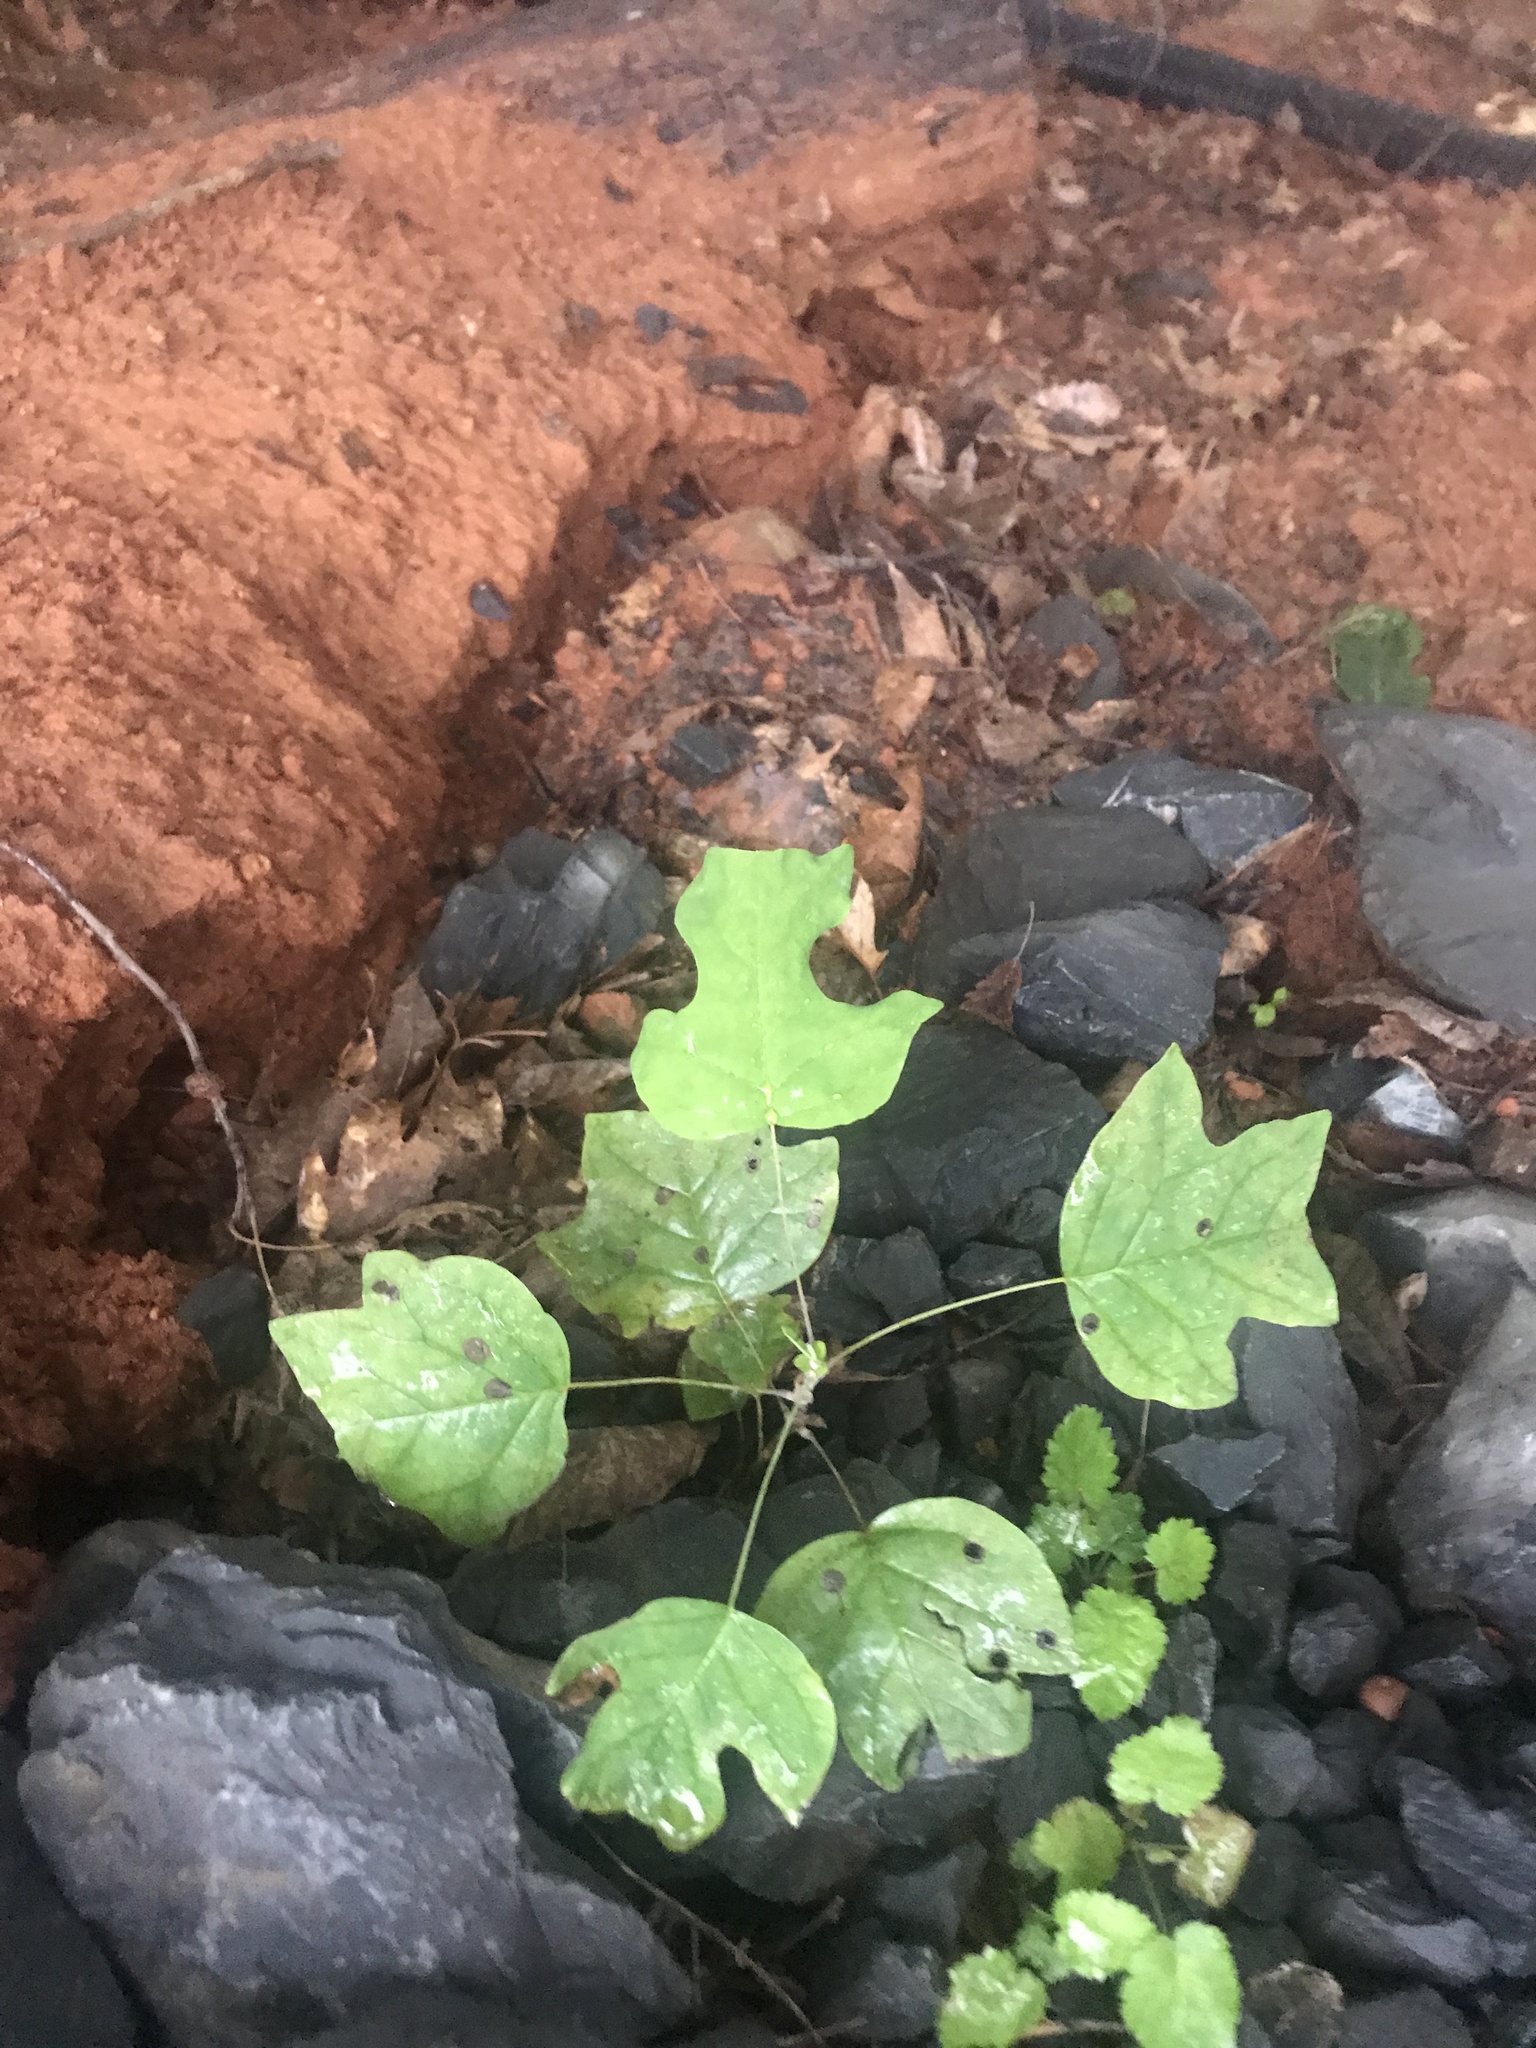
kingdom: Plantae
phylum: Tracheophyta
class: Magnoliopsida
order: Magnoliales
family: Magnoliaceae
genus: Liriodendron
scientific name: Liriodendron tulipifera
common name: Tulip tree
